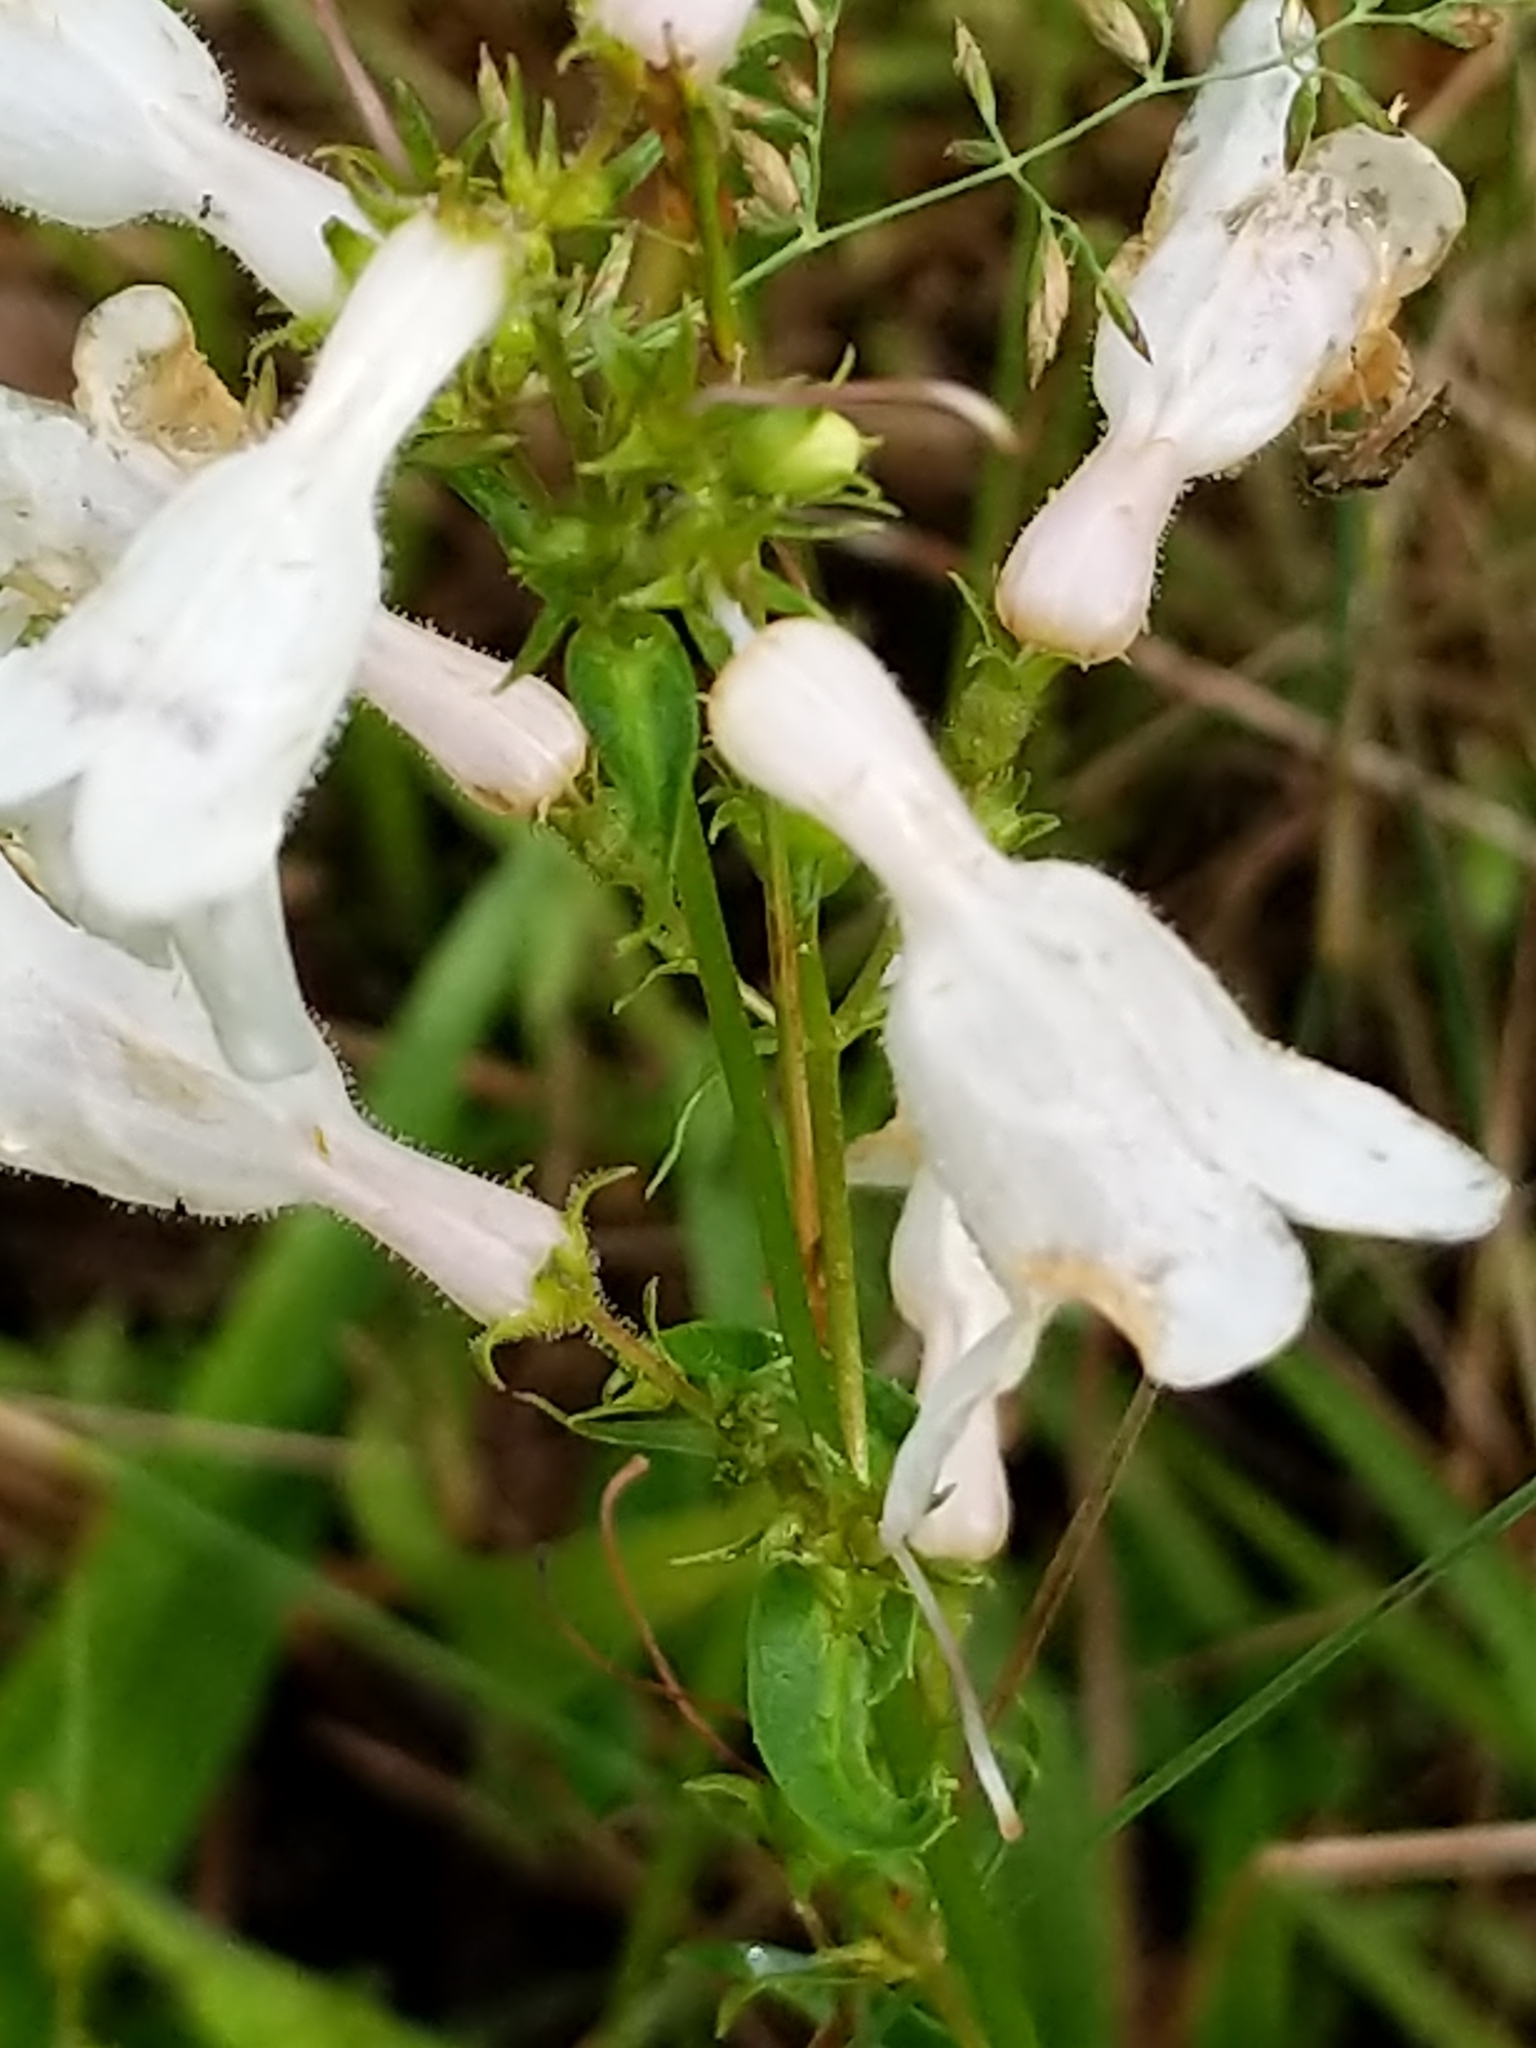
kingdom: Plantae
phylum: Tracheophyta
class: Magnoliopsida
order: Lamiales
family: Plantaginaceae
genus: Penstemon
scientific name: Penstemon digitalis
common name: Foxglove beardtongue
